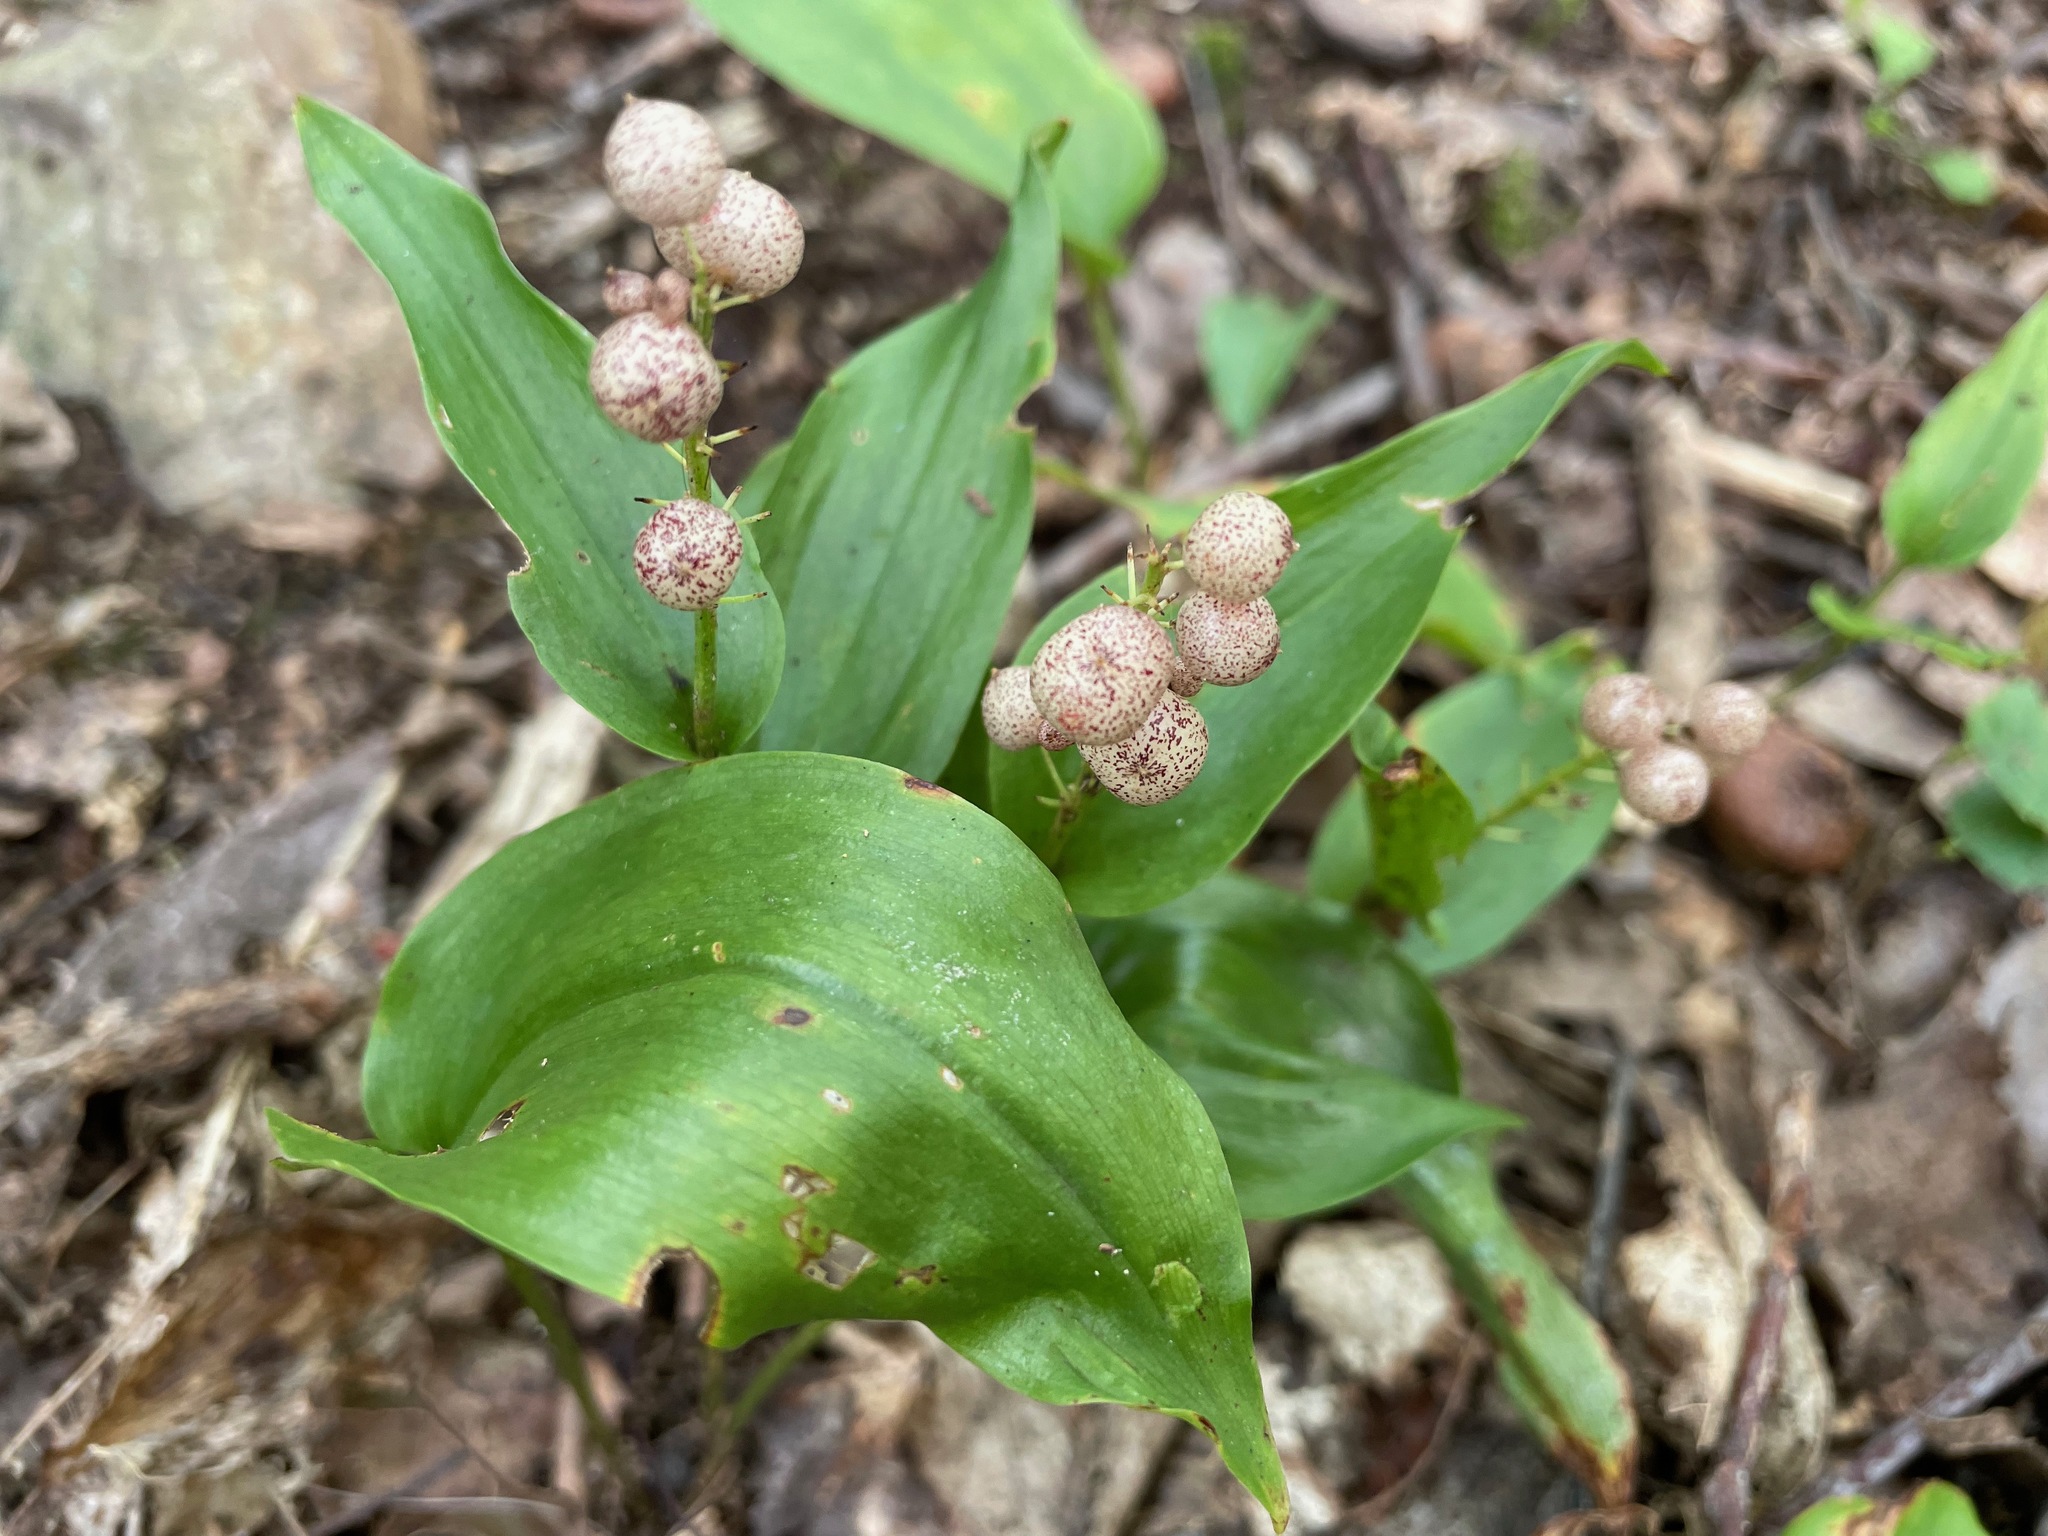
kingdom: Plantae
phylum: Tracheophyta
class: Liliopsida
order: Asparagales
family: Asparagaceae
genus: Maianthemum
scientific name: Maianthemum canadense
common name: False lily-of-the-valley
